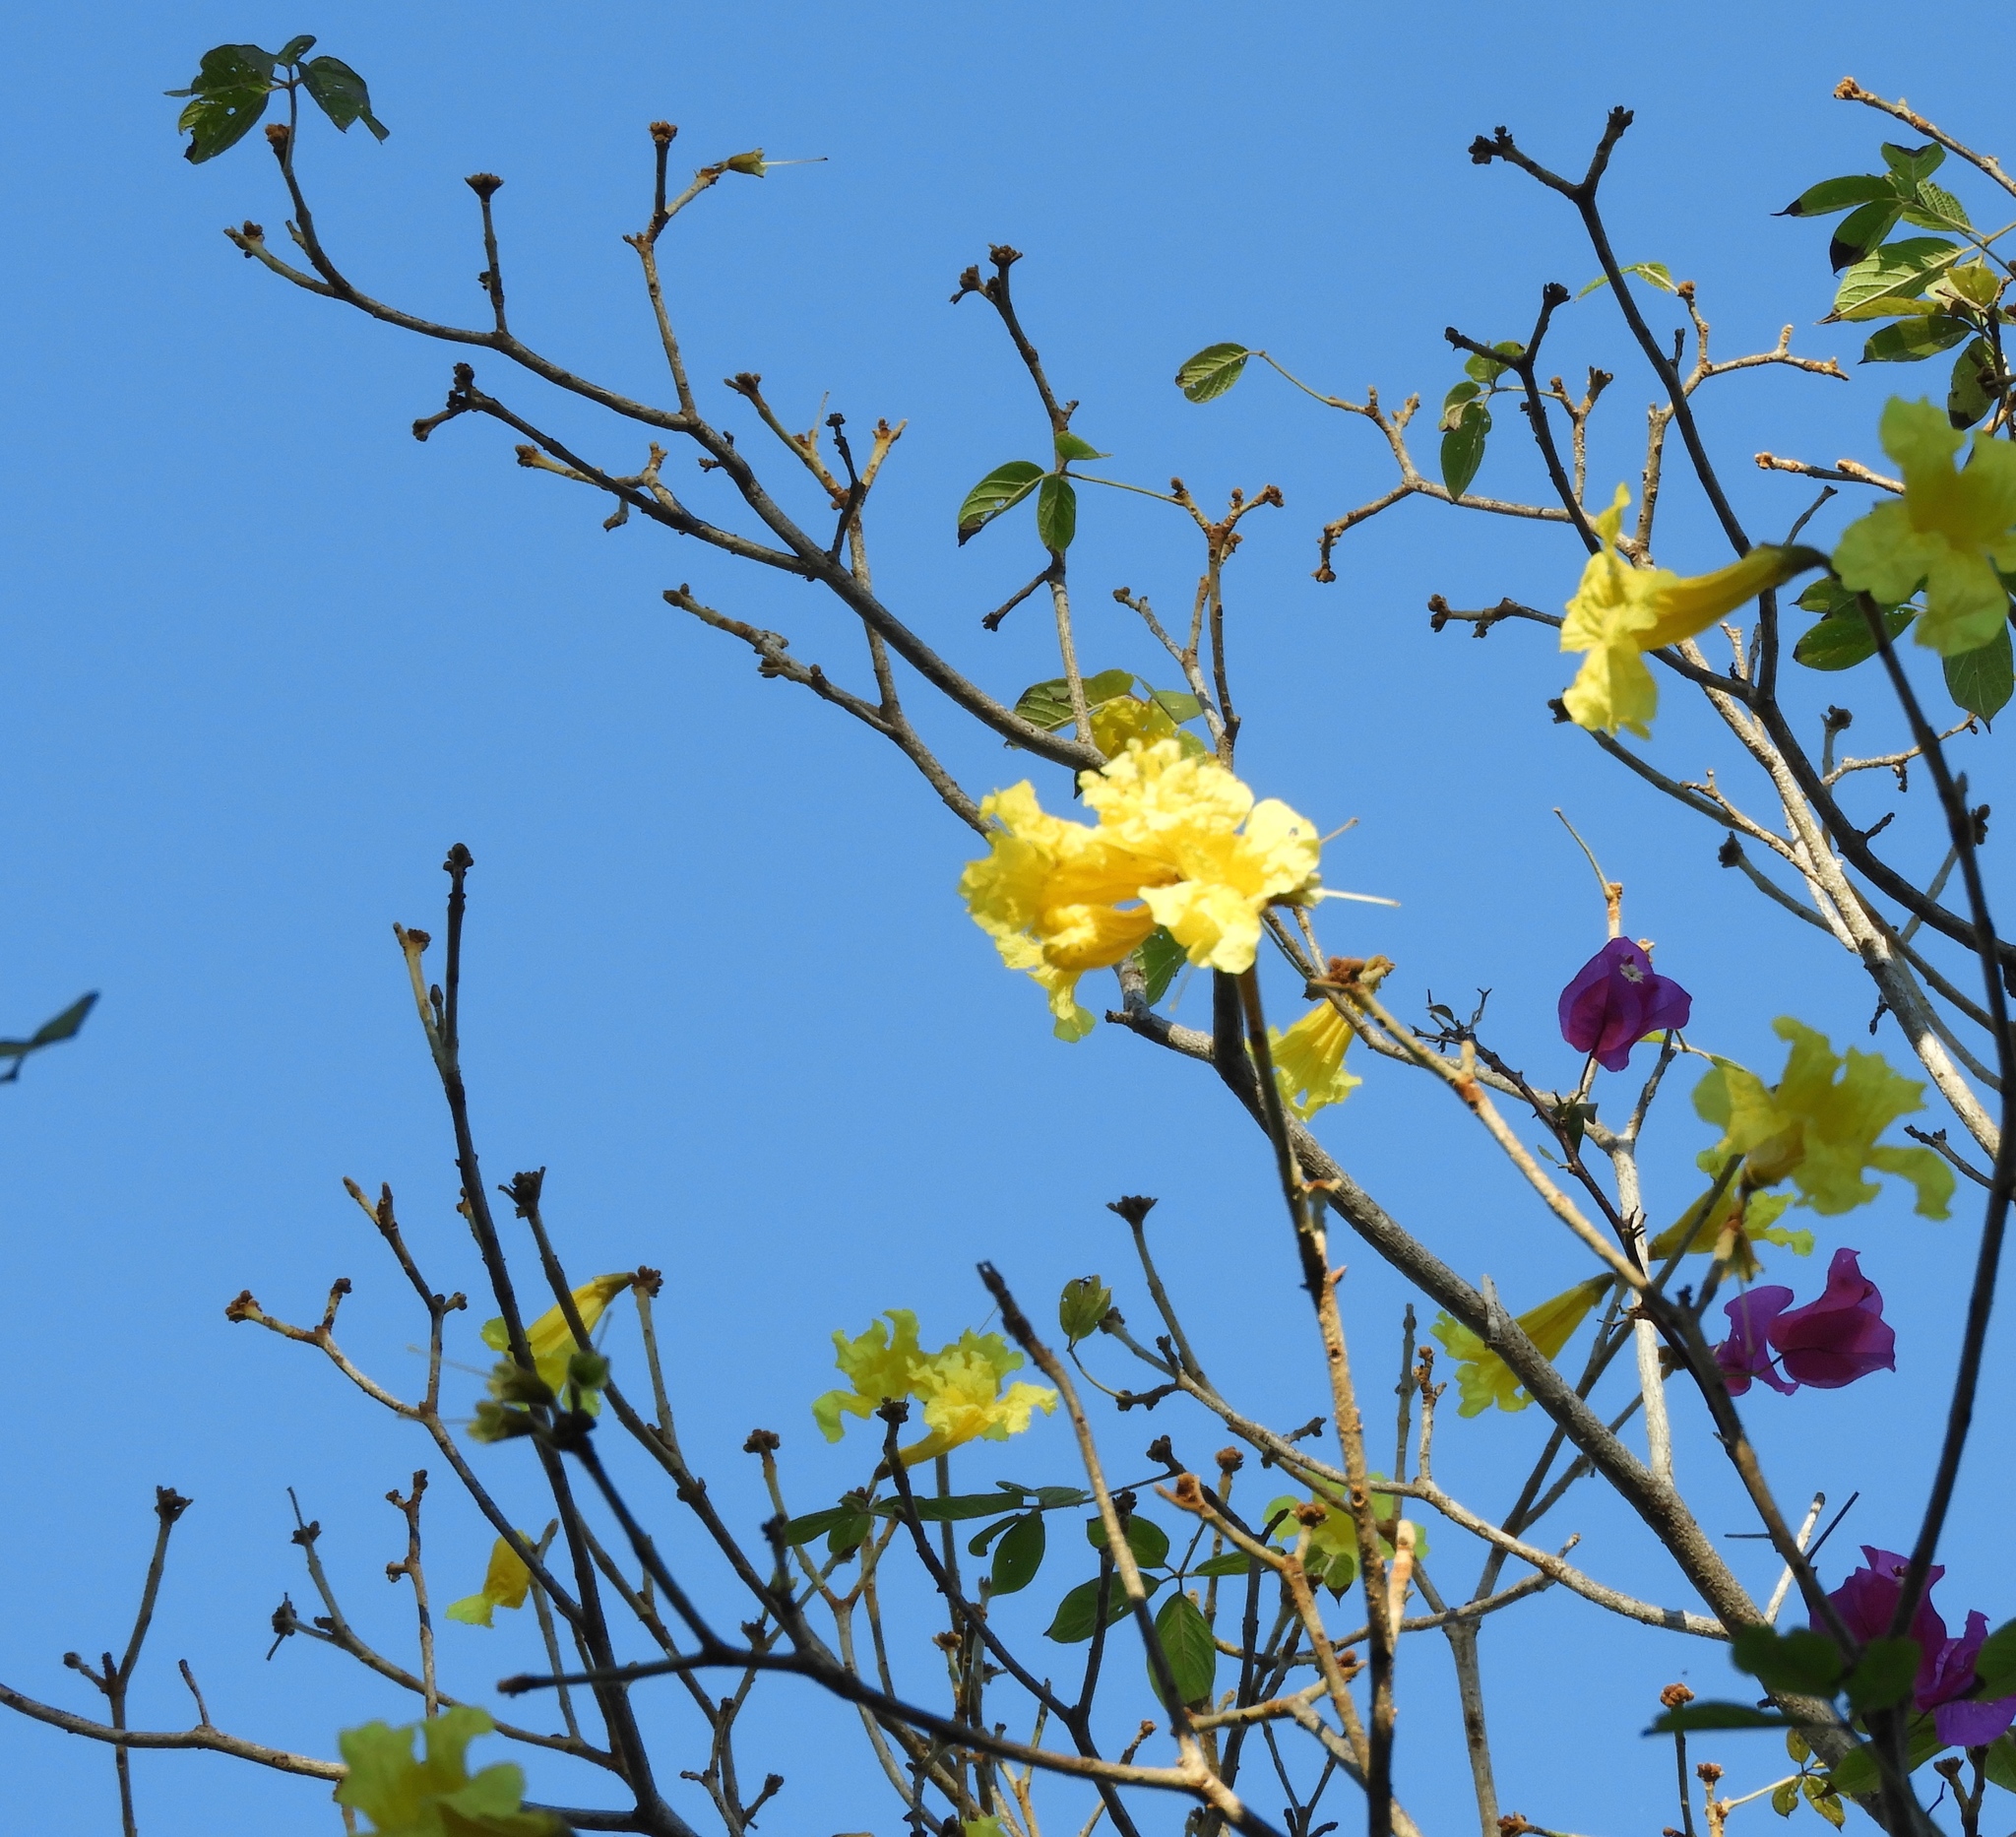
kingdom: Plantae
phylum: Tracheophyta
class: Magnoliopsida
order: Lamiales
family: Bignoniaceae
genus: Handroanthus
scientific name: Handroanthus chrysanthus
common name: Trumpet trees
